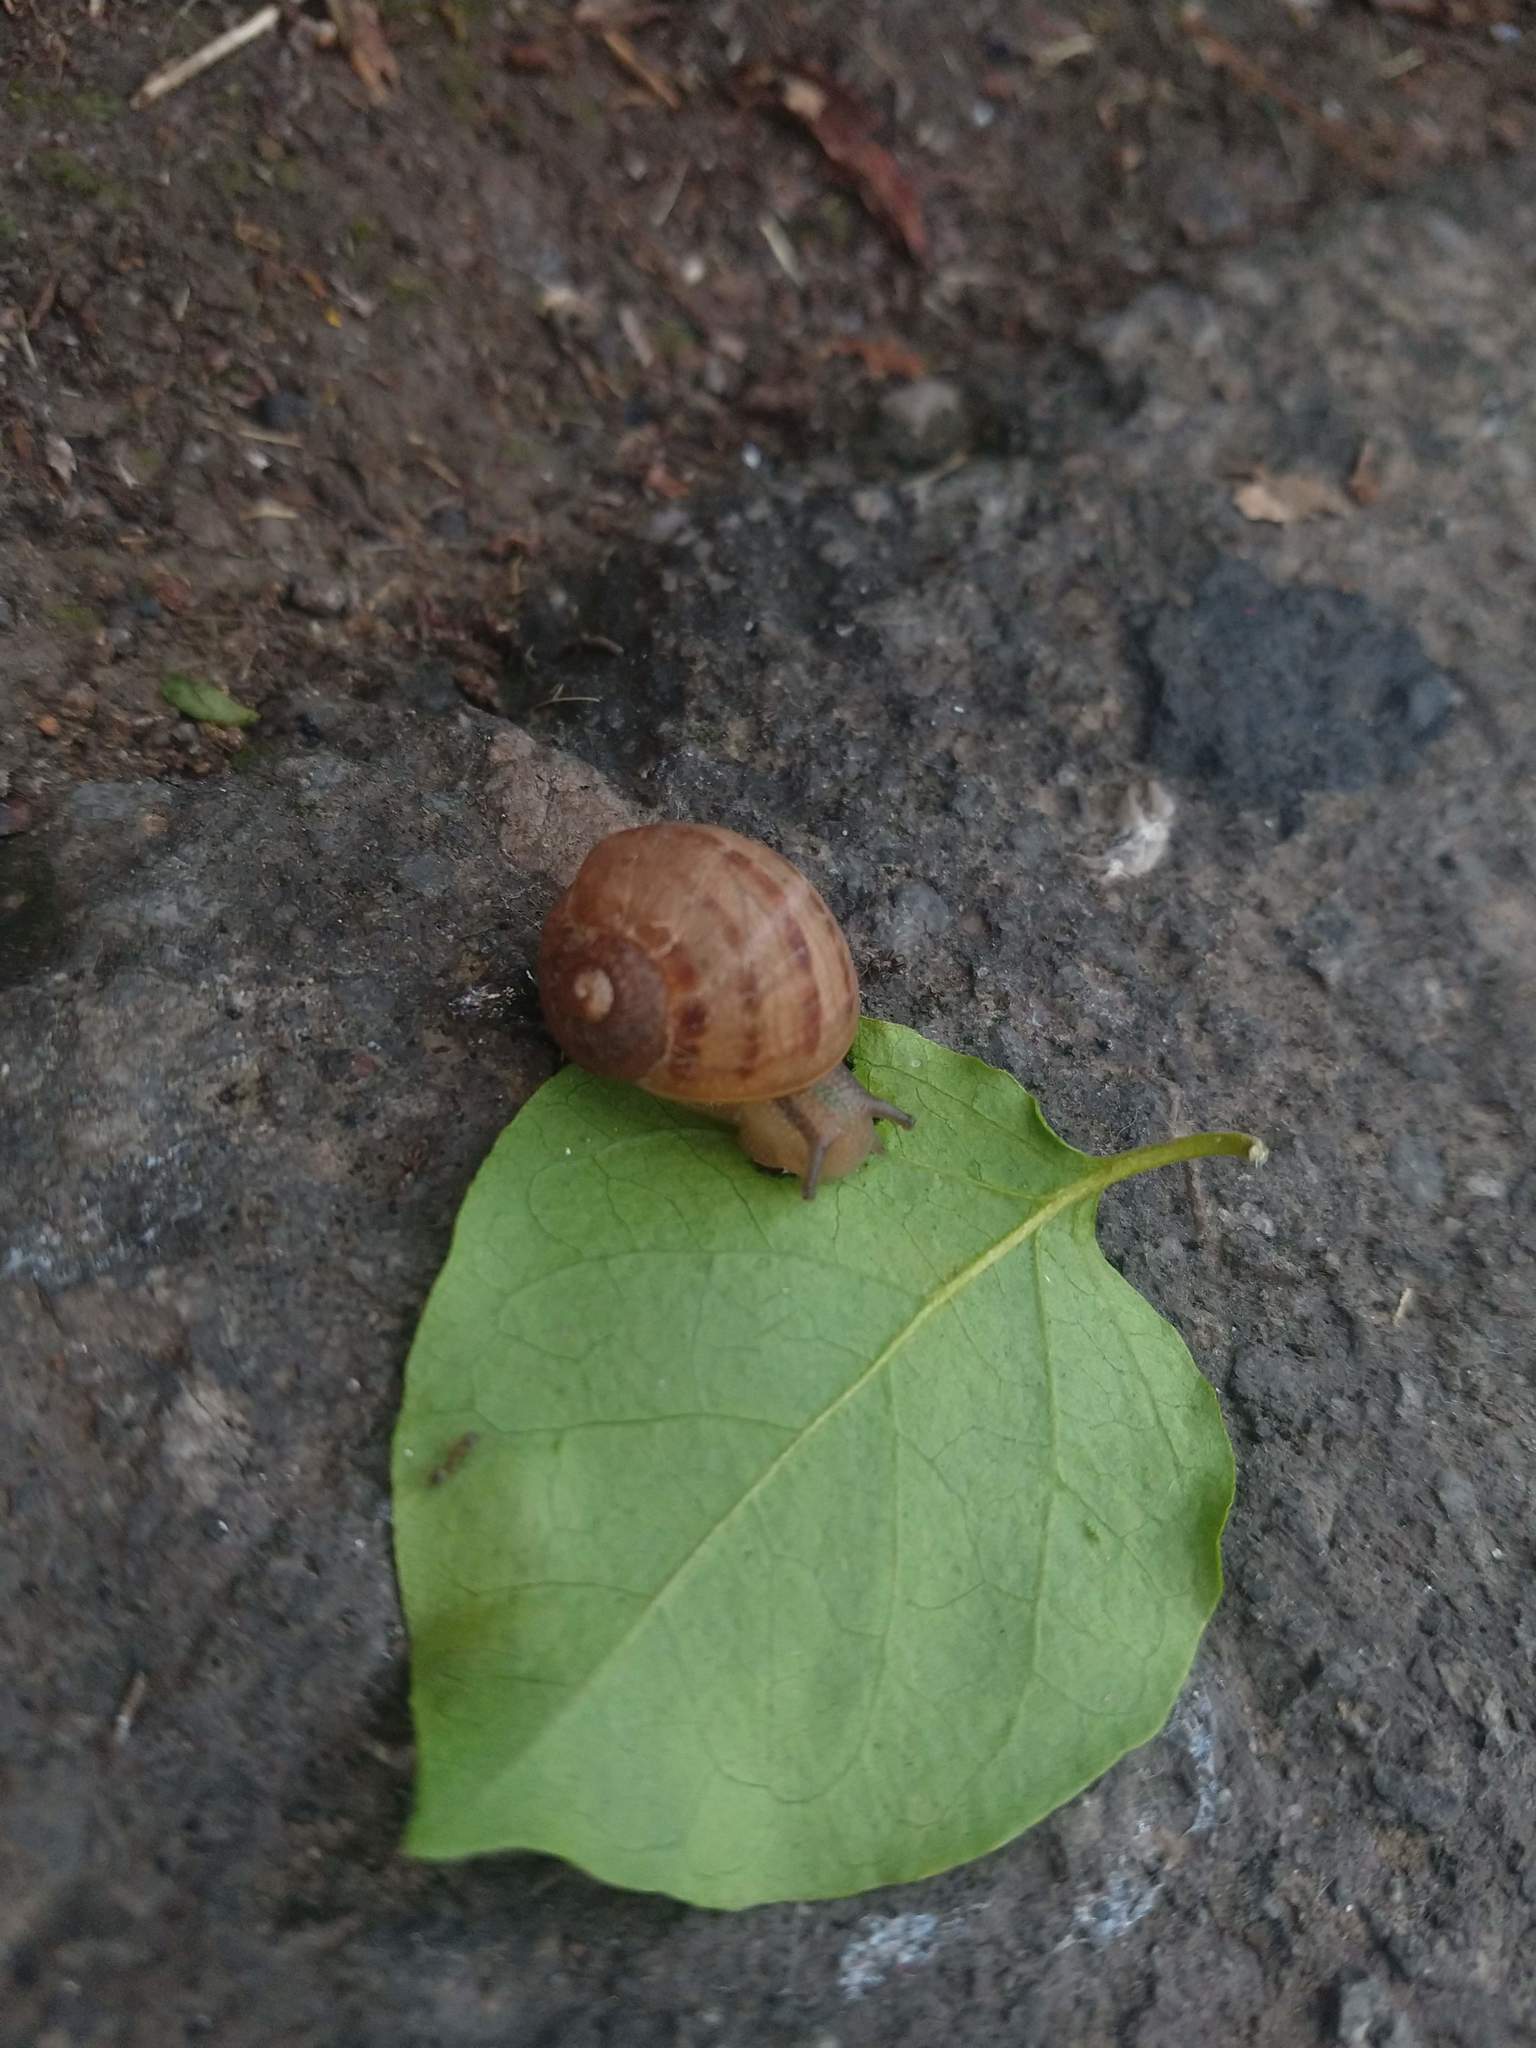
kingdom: Animalia
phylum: Mollusca
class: Gastropoda
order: Stylommatophora
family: Helicidae
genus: Cornu
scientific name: Cornu aspersum
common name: Brown garden snail
